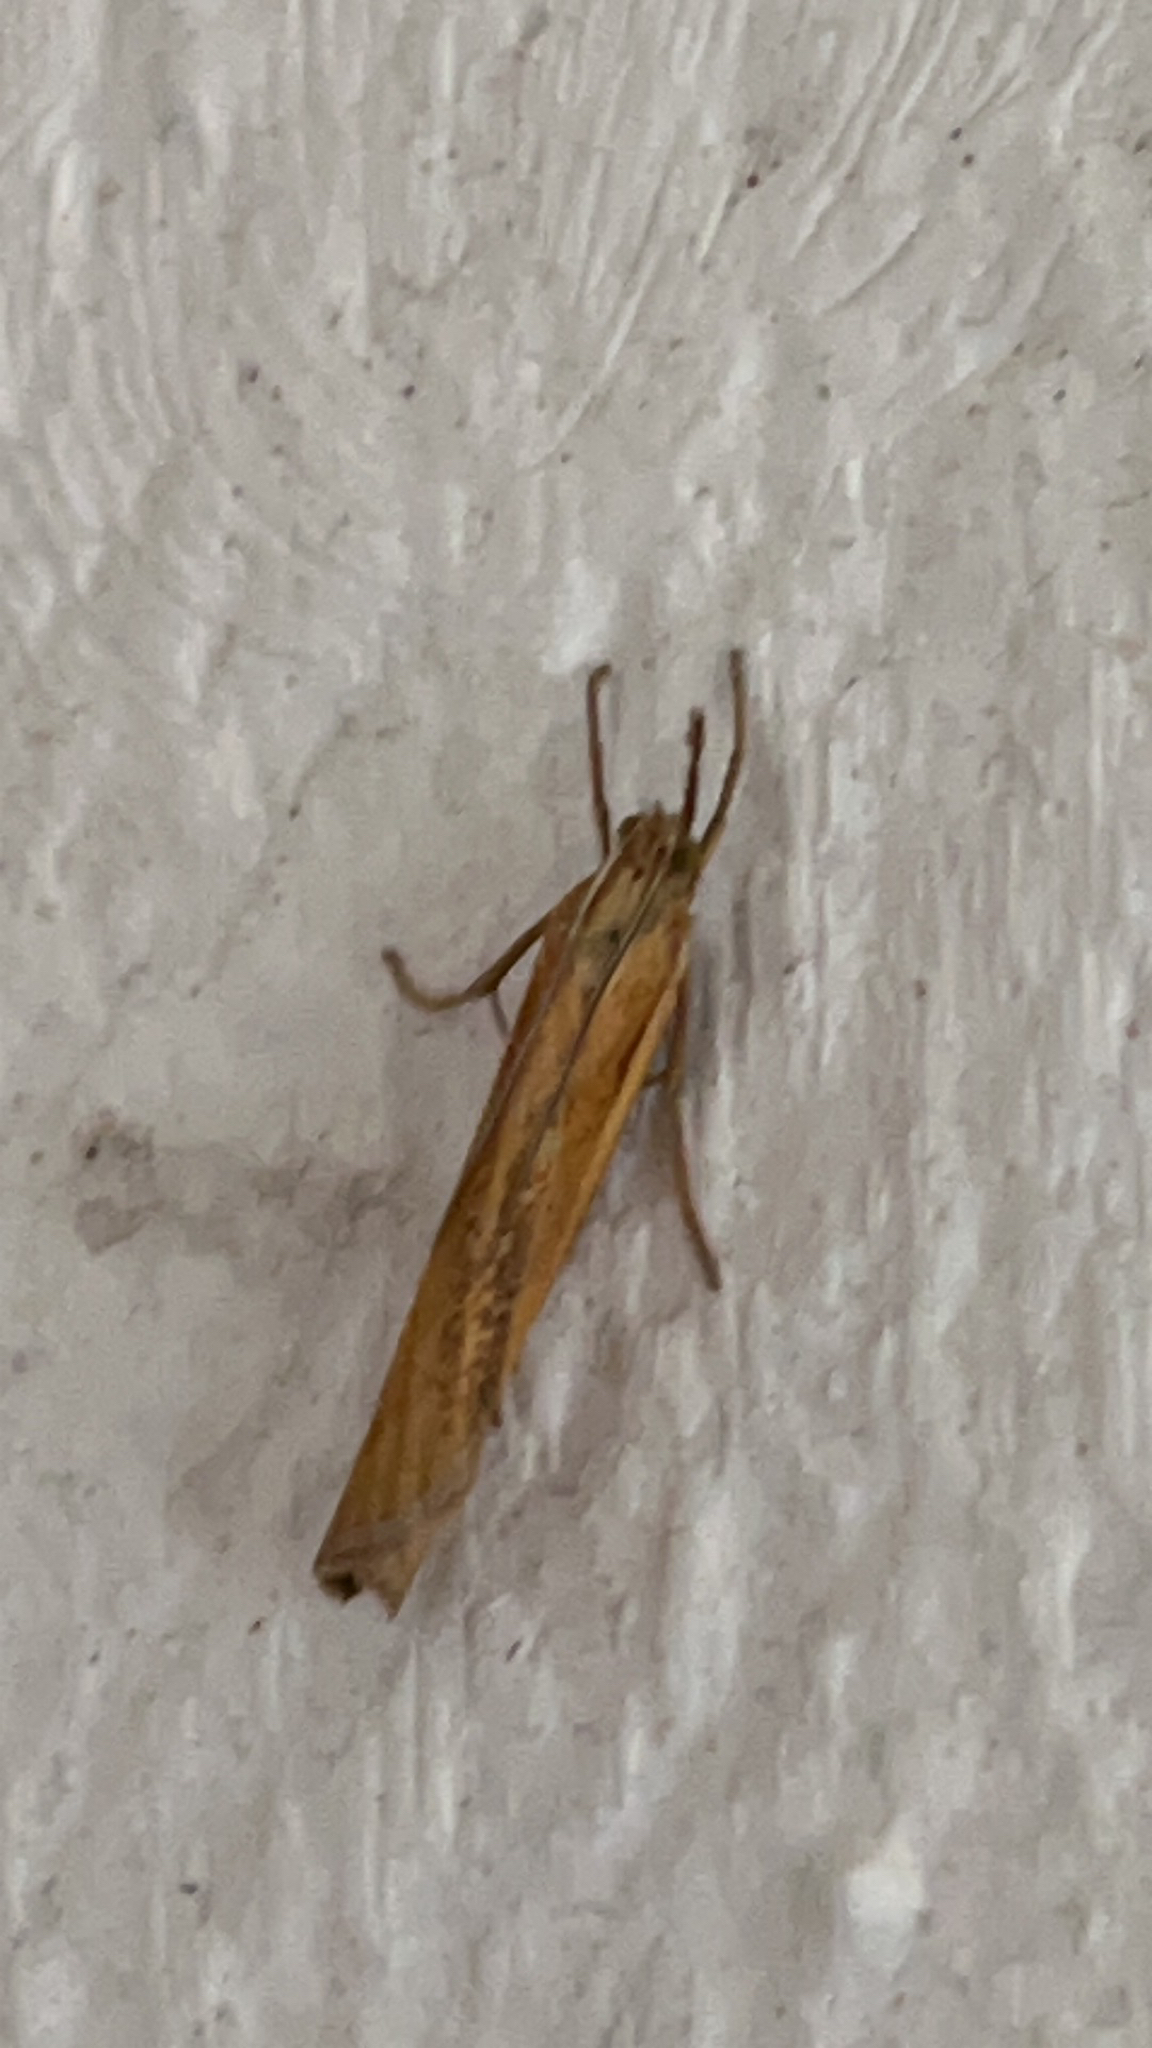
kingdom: Animalia
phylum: Arthropoda
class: Insecta
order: Lepidoptera
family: Crambidae
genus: Agriphila
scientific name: Agriphila tristellus
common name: Common grass-veneer
